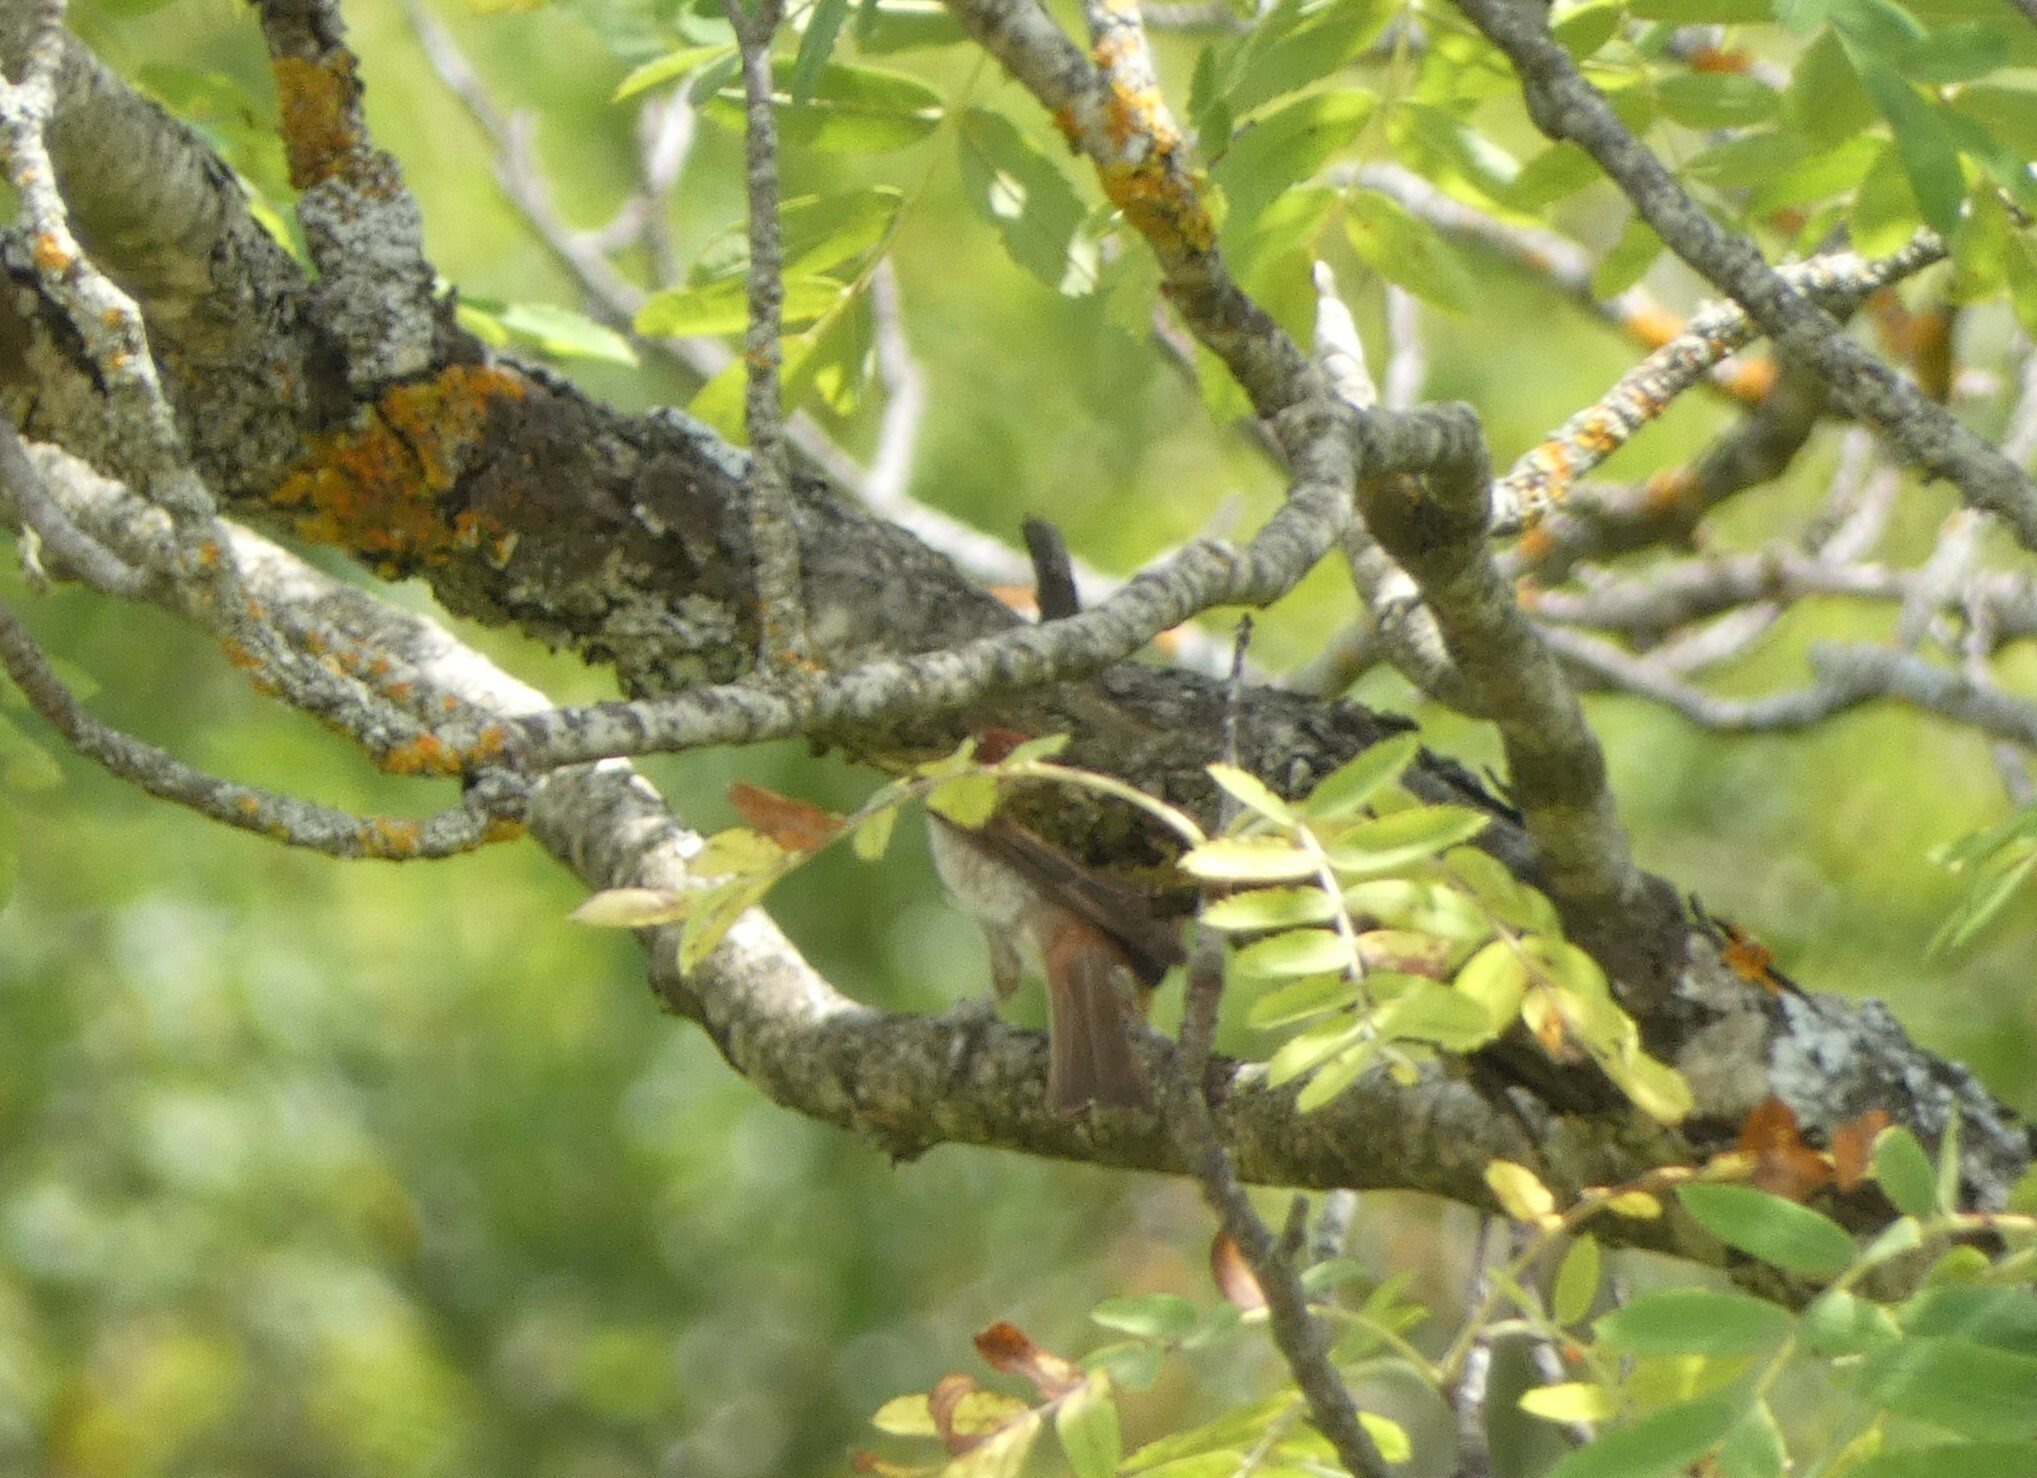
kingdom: Animalia
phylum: Chordata
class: Aves
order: Passeriformes
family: Laniidae
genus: Lanius
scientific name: Lanius collurio
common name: Red-backed shrike
